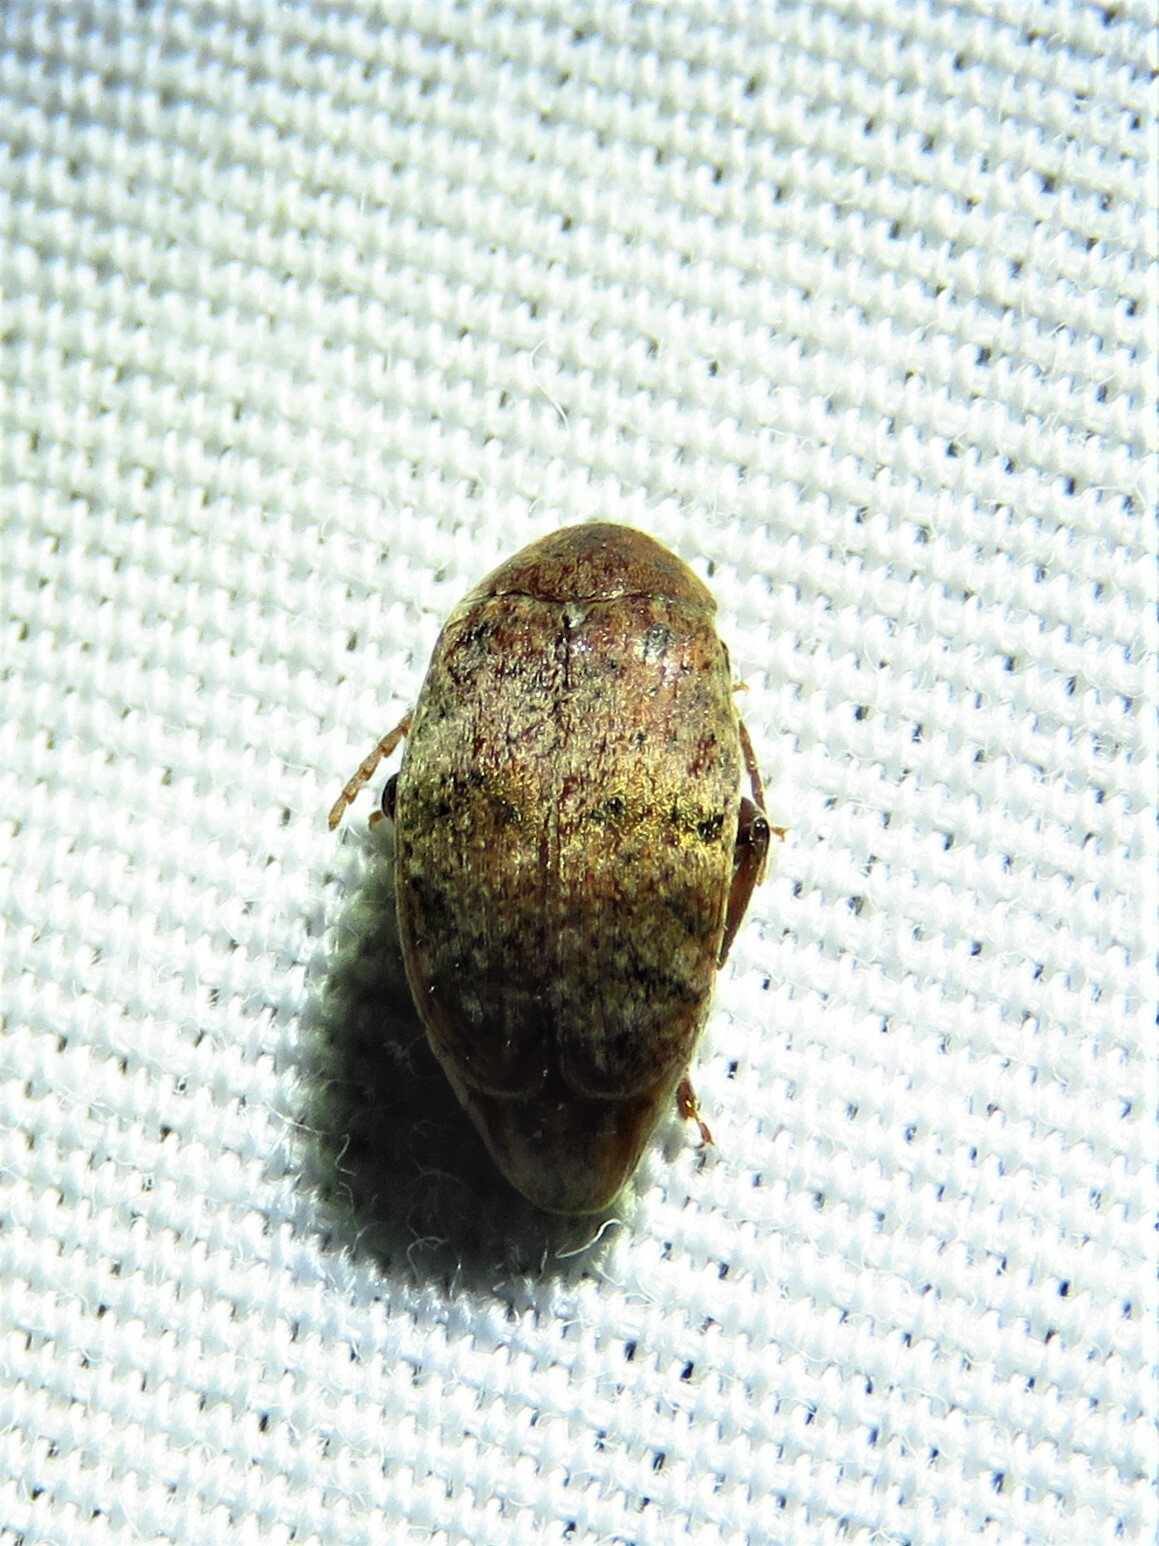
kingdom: Animalia
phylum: Arthropoda
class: Insecta
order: Coleoptera
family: Chrysomelidae
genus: Amblycerus
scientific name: Amblycerus robiniae
